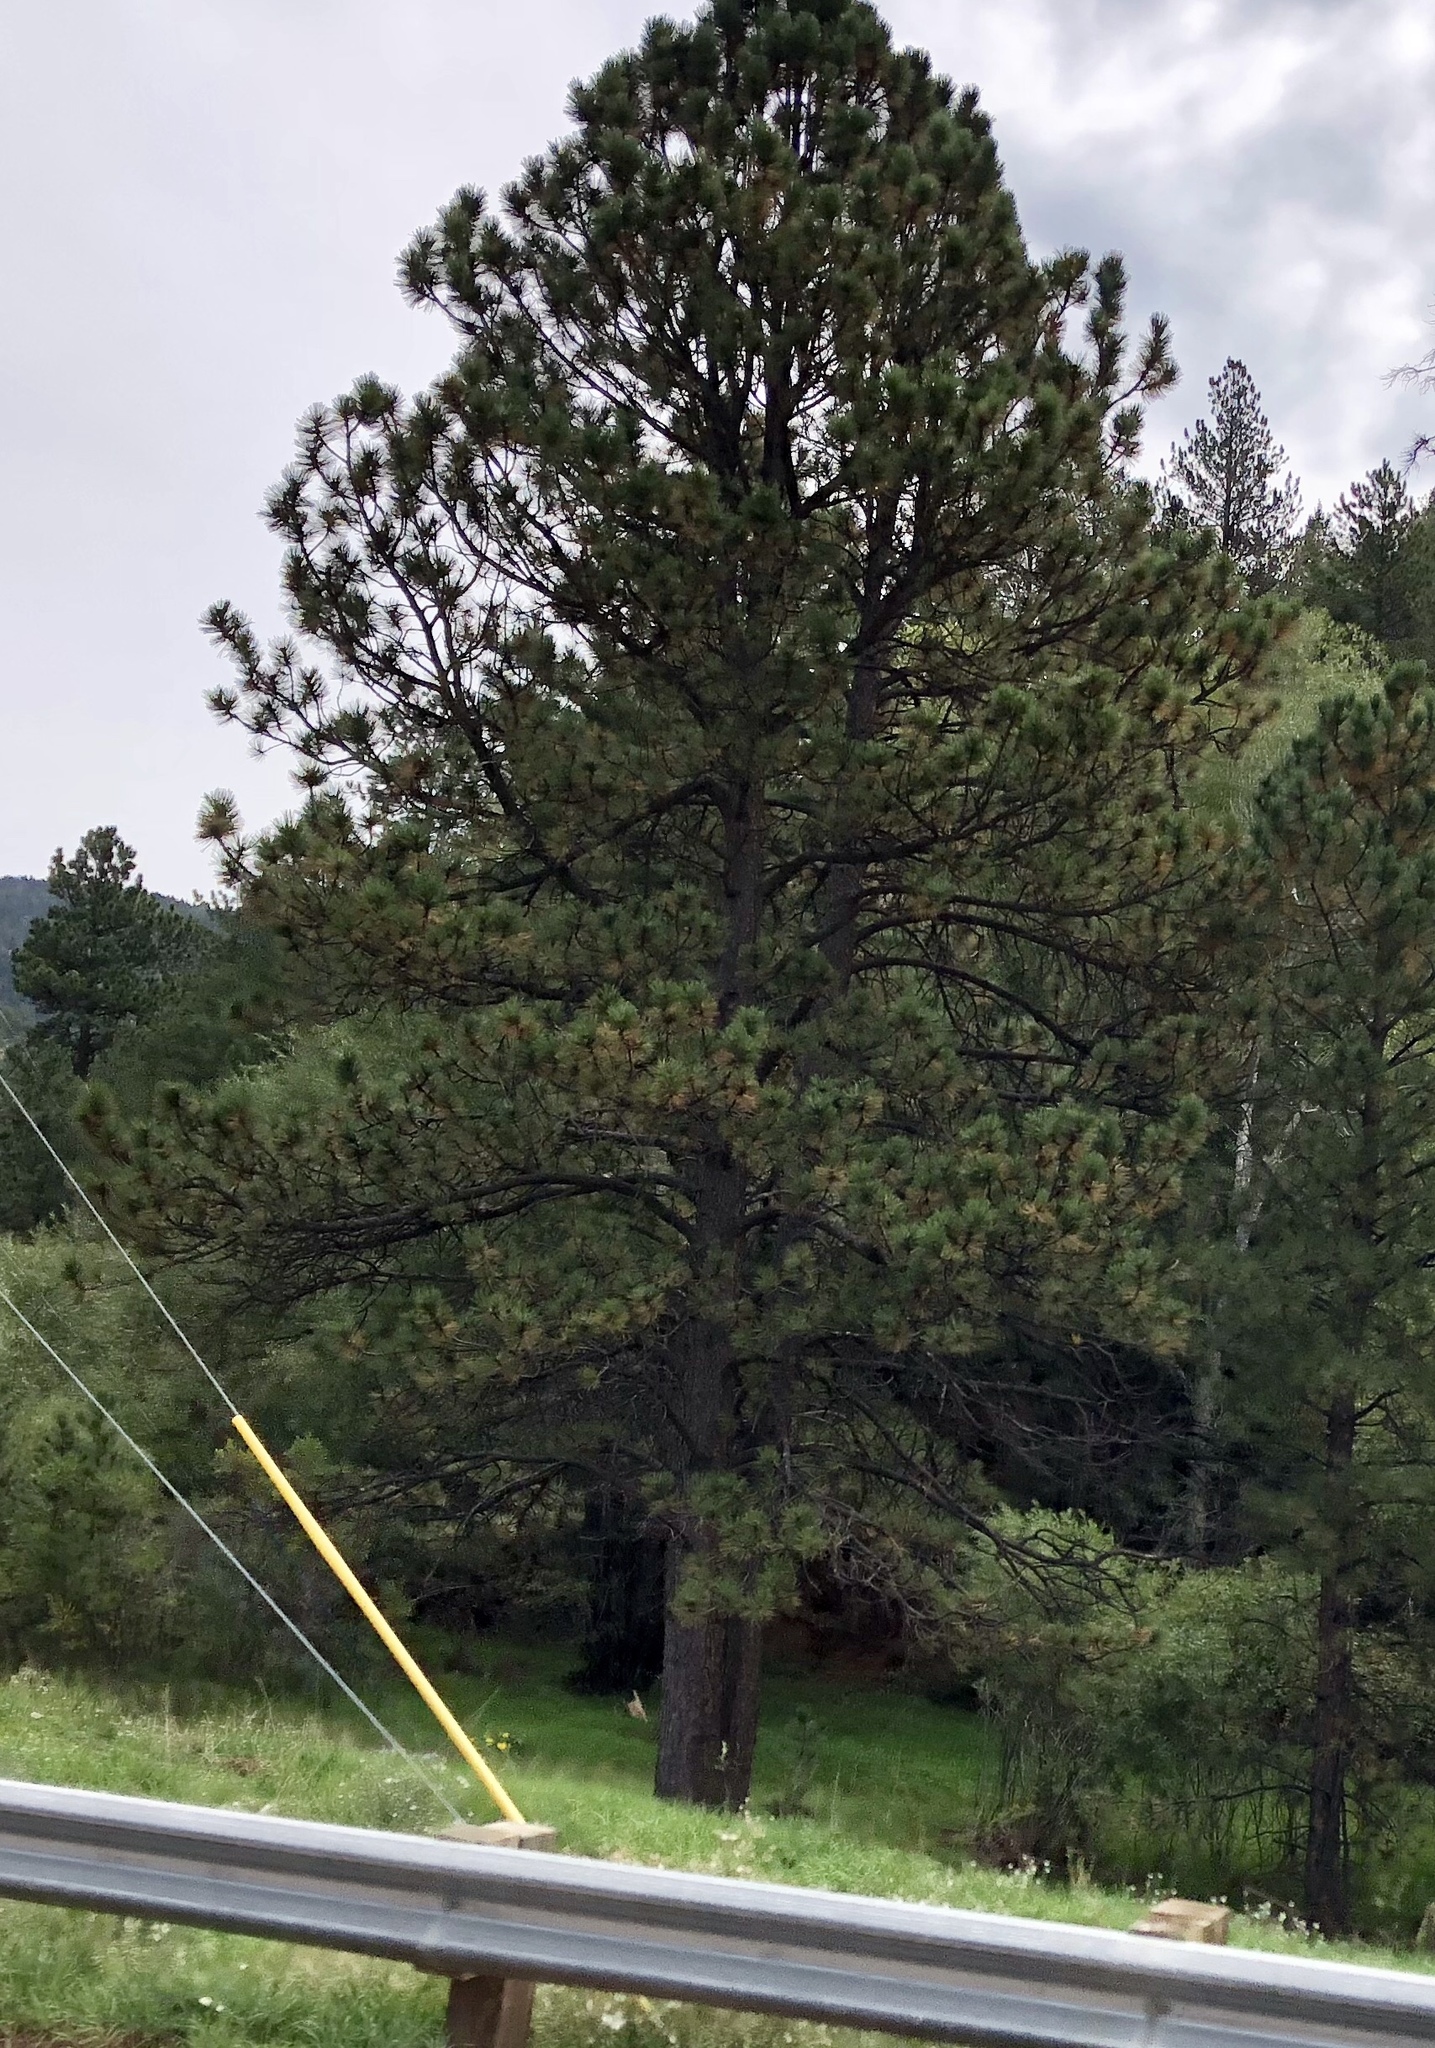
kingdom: Plantae
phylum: Tracheophyta
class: Pinopsida
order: Pinales
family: Pinaceae
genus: Pinus
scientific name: Pinus ponderosa
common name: Western yellow-pine
